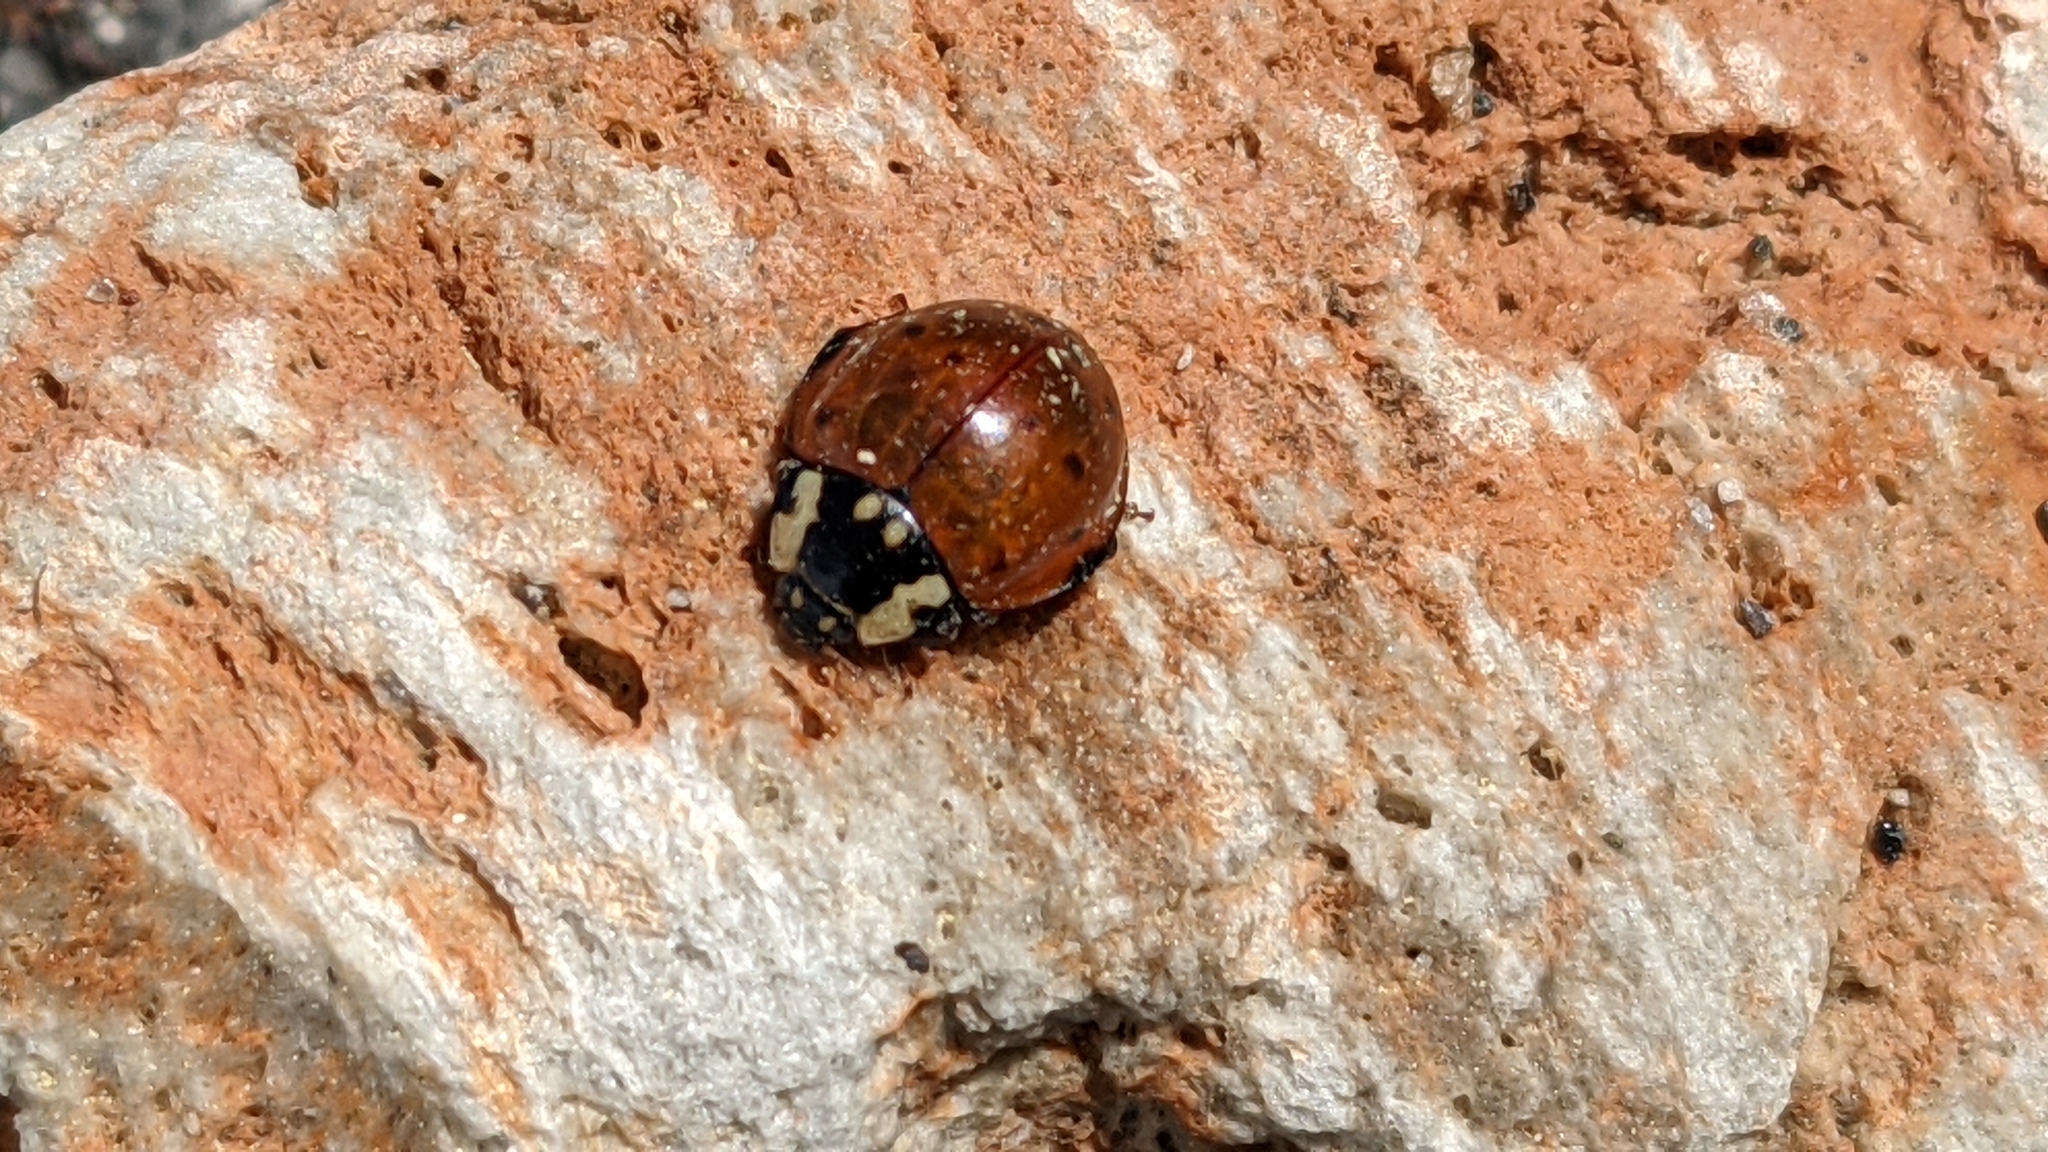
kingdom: Animalia
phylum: Arthropoda
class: Insecta
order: Coleoptera
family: Coccinellidae
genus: Anatis
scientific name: Anatis rathvoni
